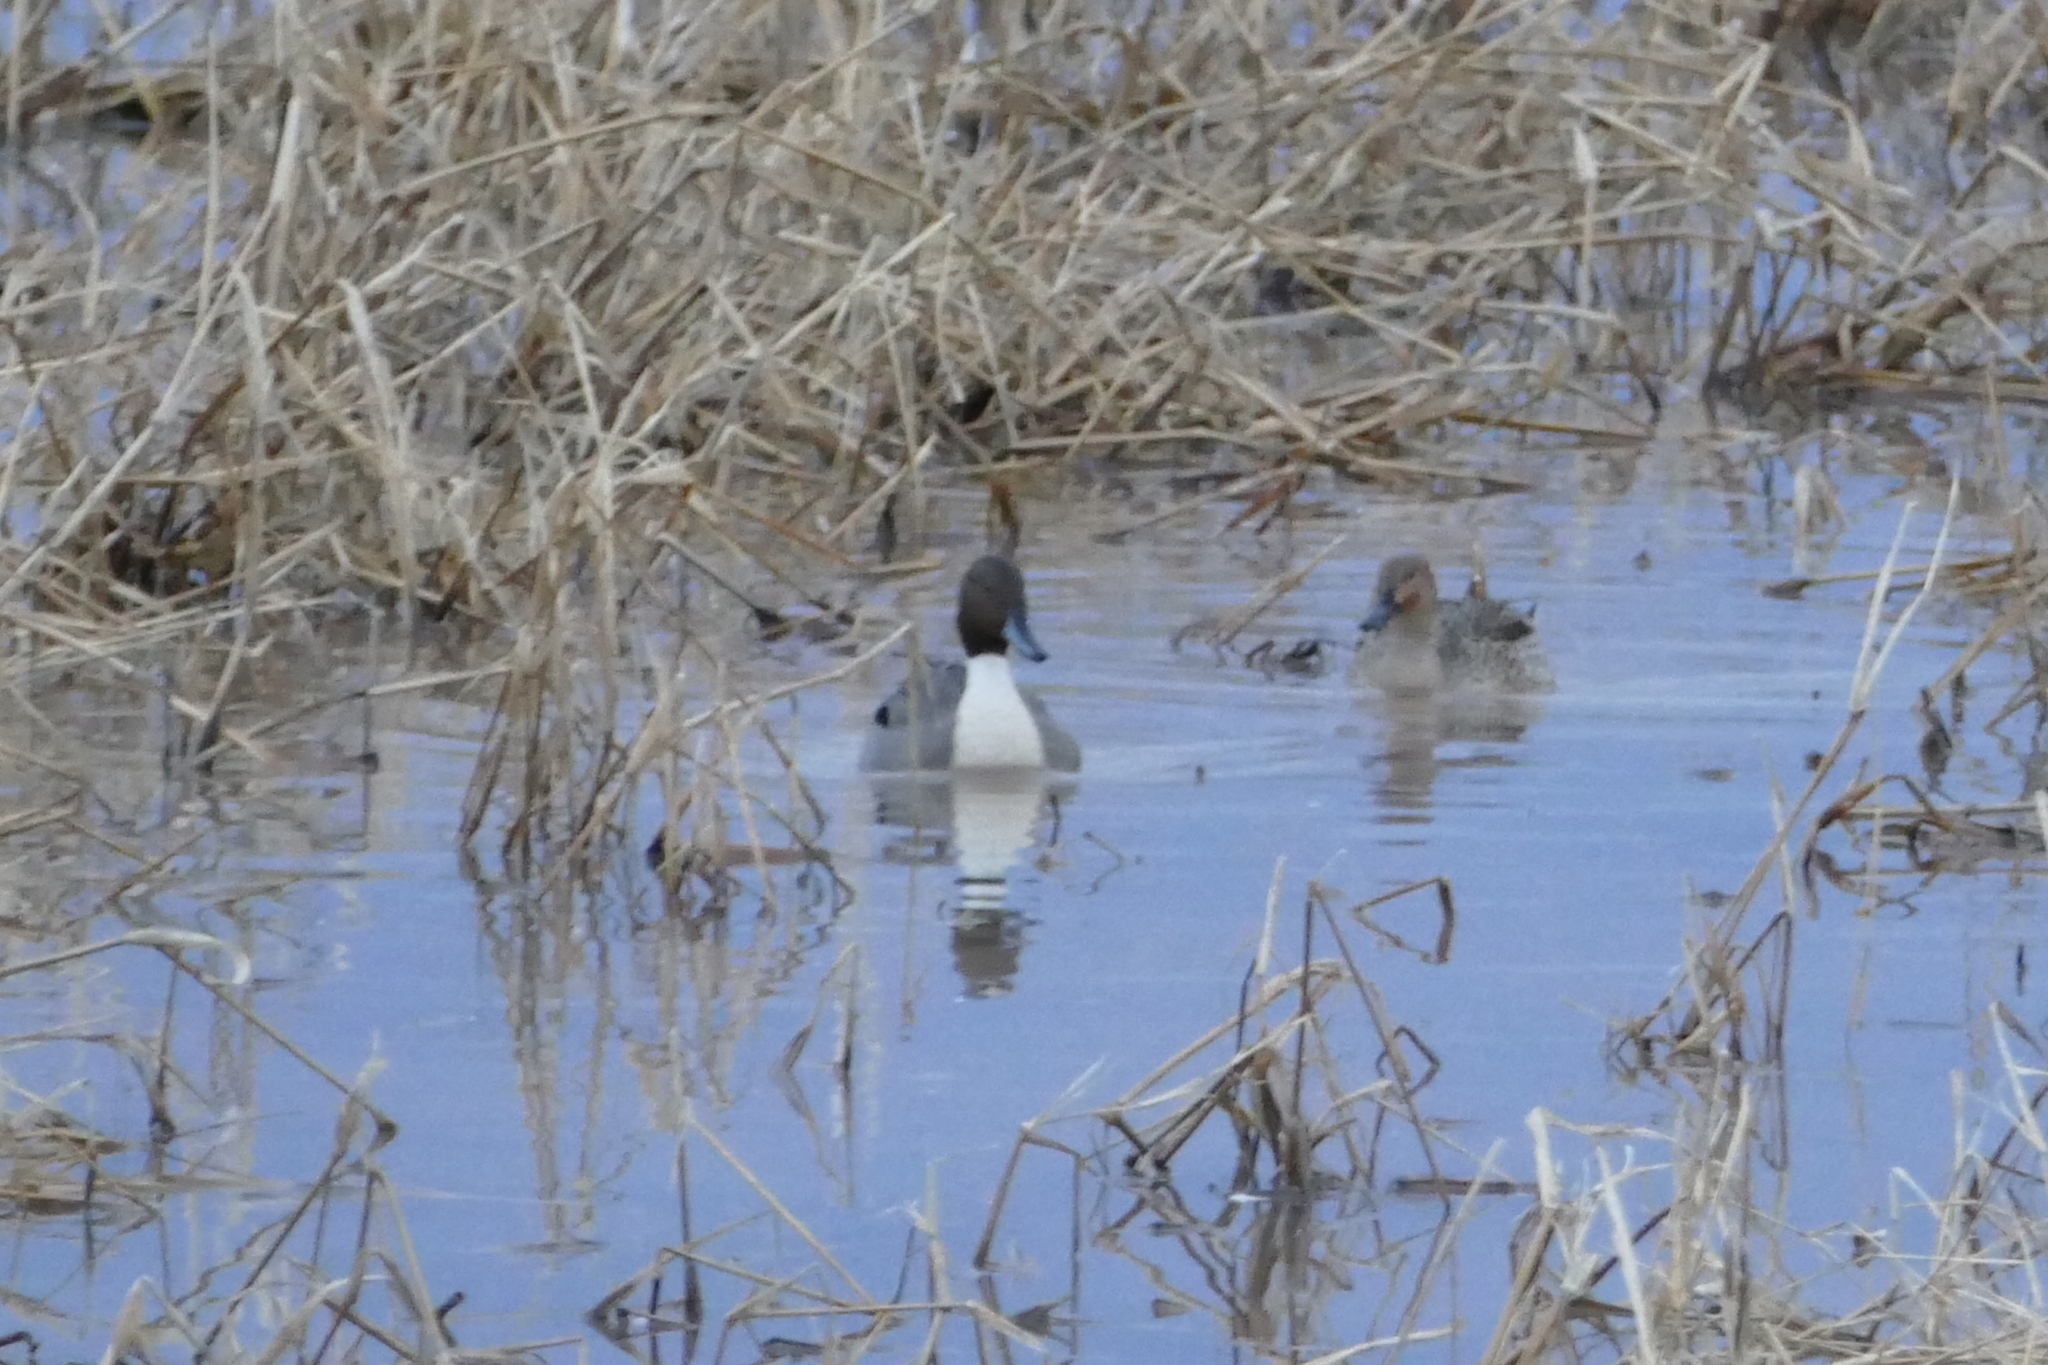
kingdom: Animalia
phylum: Chordata
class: Aves
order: Anseriformes
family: Anatidae
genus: Anas
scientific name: Anas acuta
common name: Northern pintail
